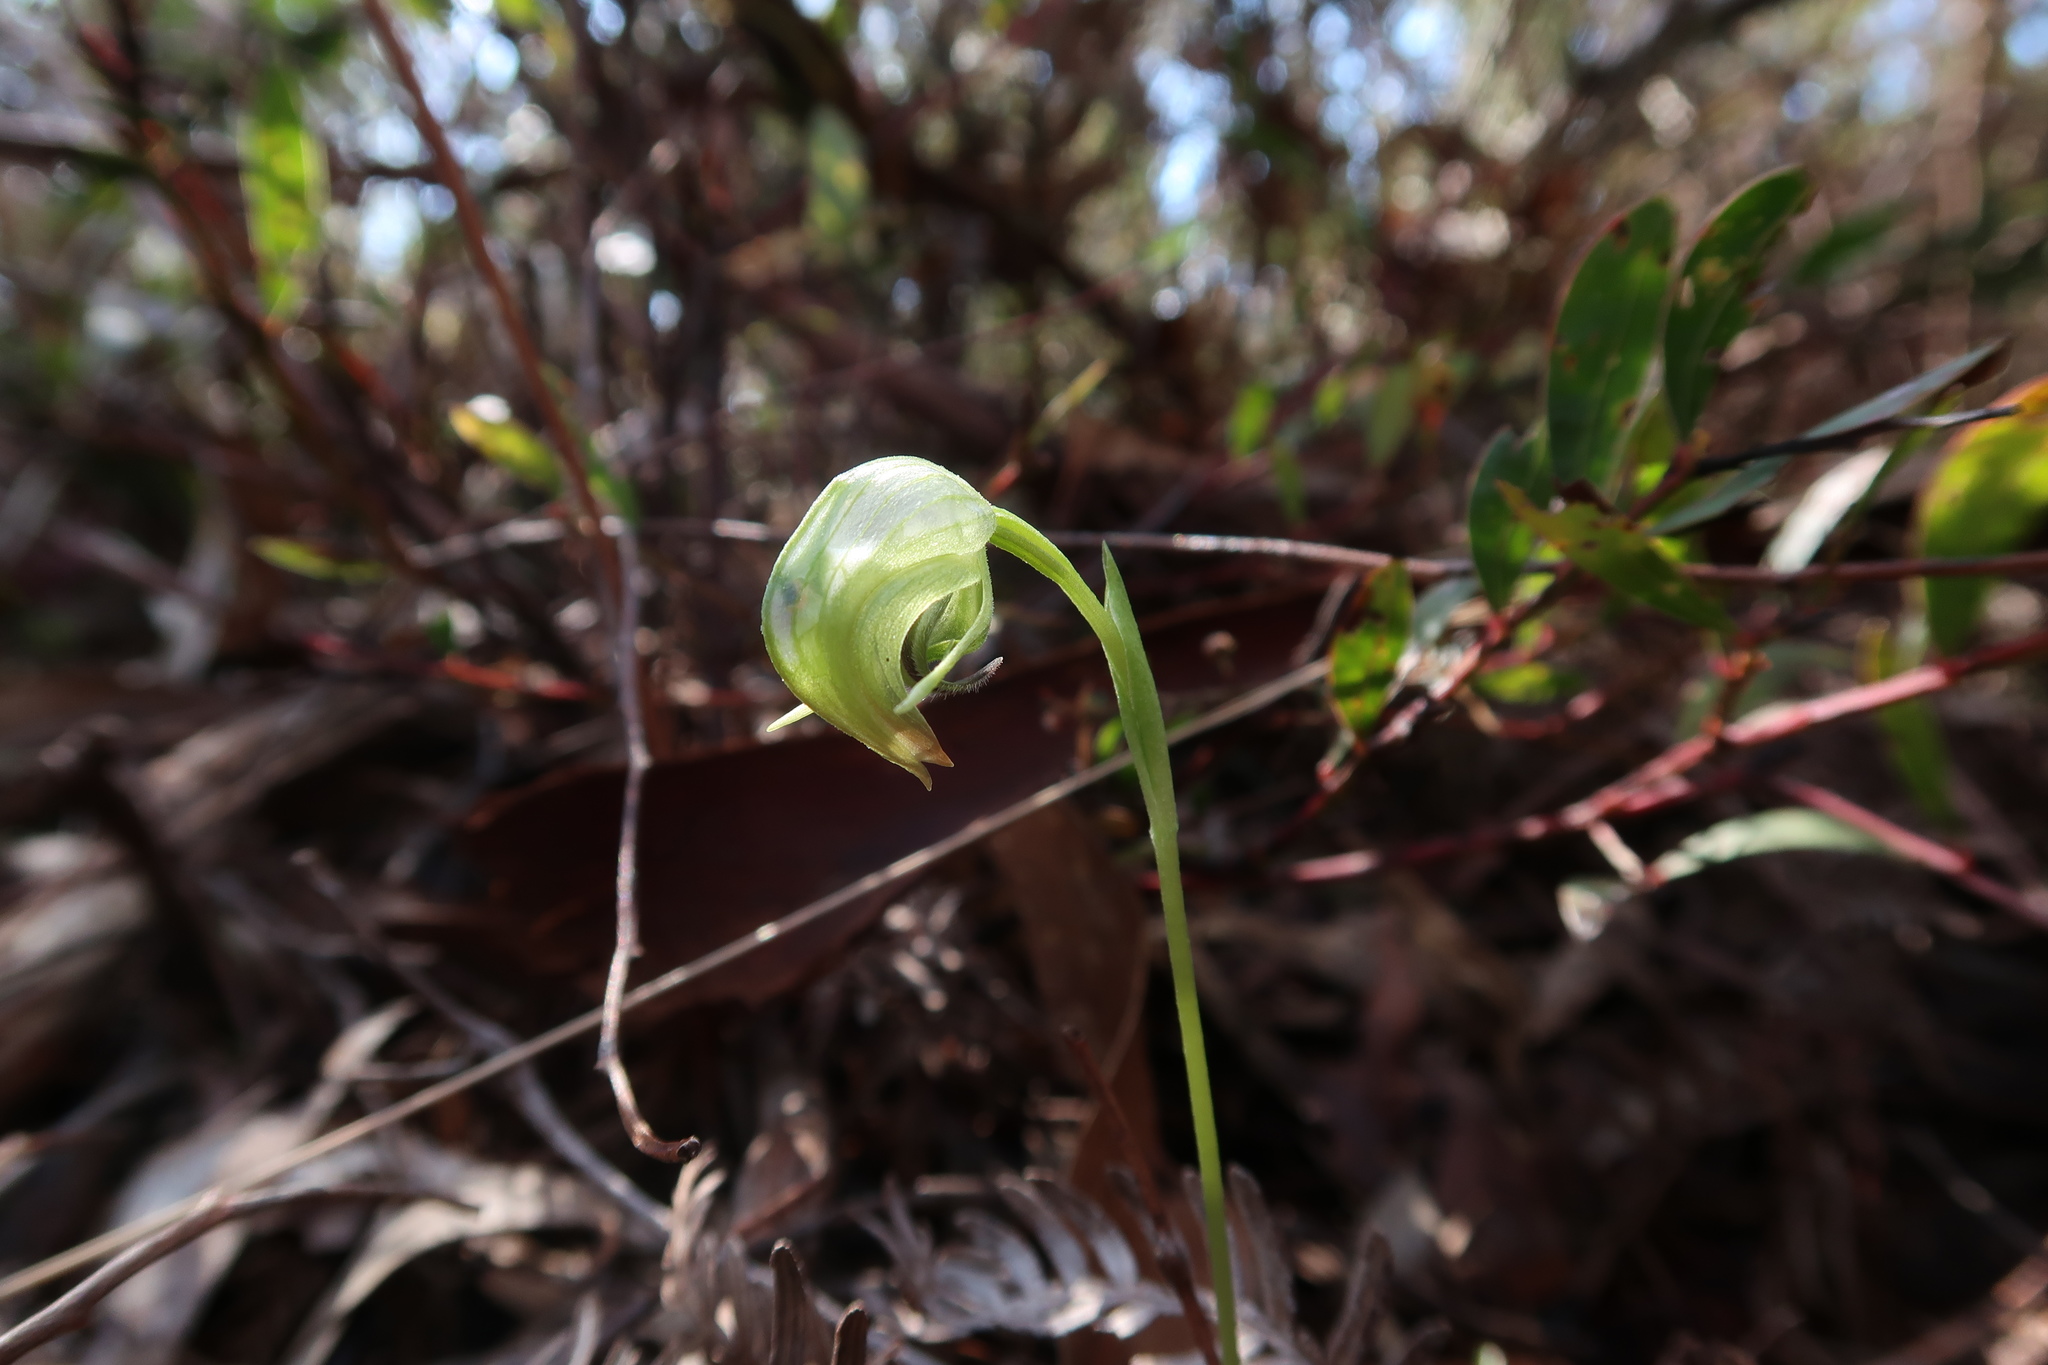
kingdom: Plantae
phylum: Tracheophyta
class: Liliopsida
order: Asparagales
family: Orchidaceae
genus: Pterostylis
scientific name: Pterostylis nutans
